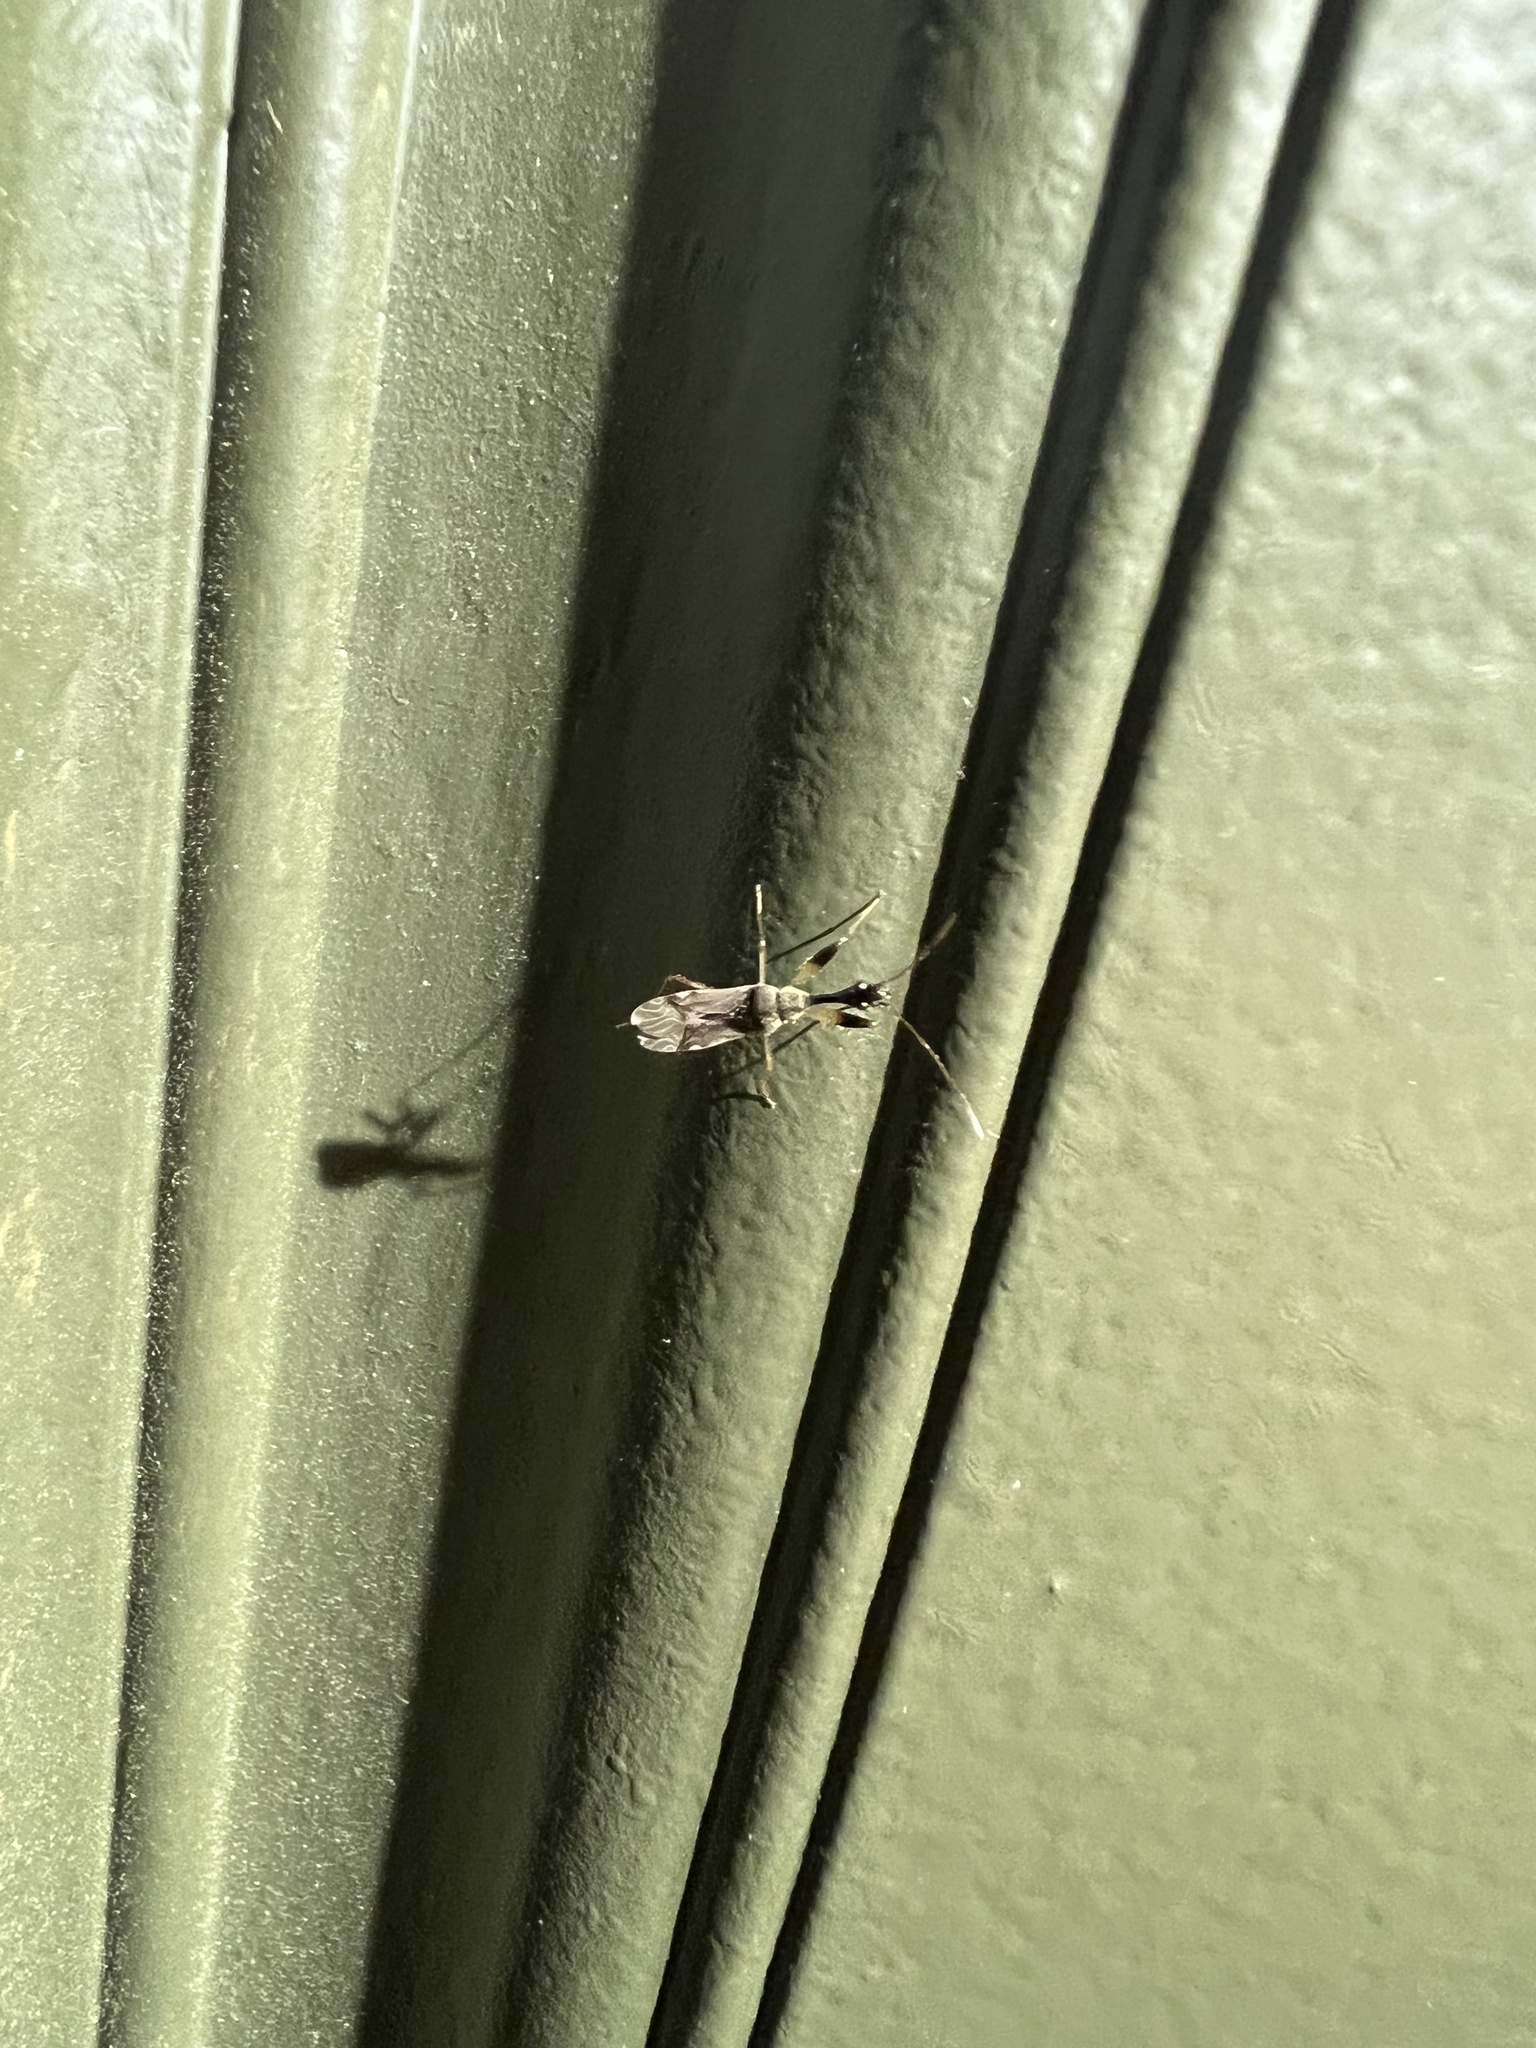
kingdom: Animalia
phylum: Arthropoda
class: Insecta
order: Hemiptera
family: Rhyparochromidae
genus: Myodocha
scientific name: Myodocha serripes
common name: Long-necked seed bug
